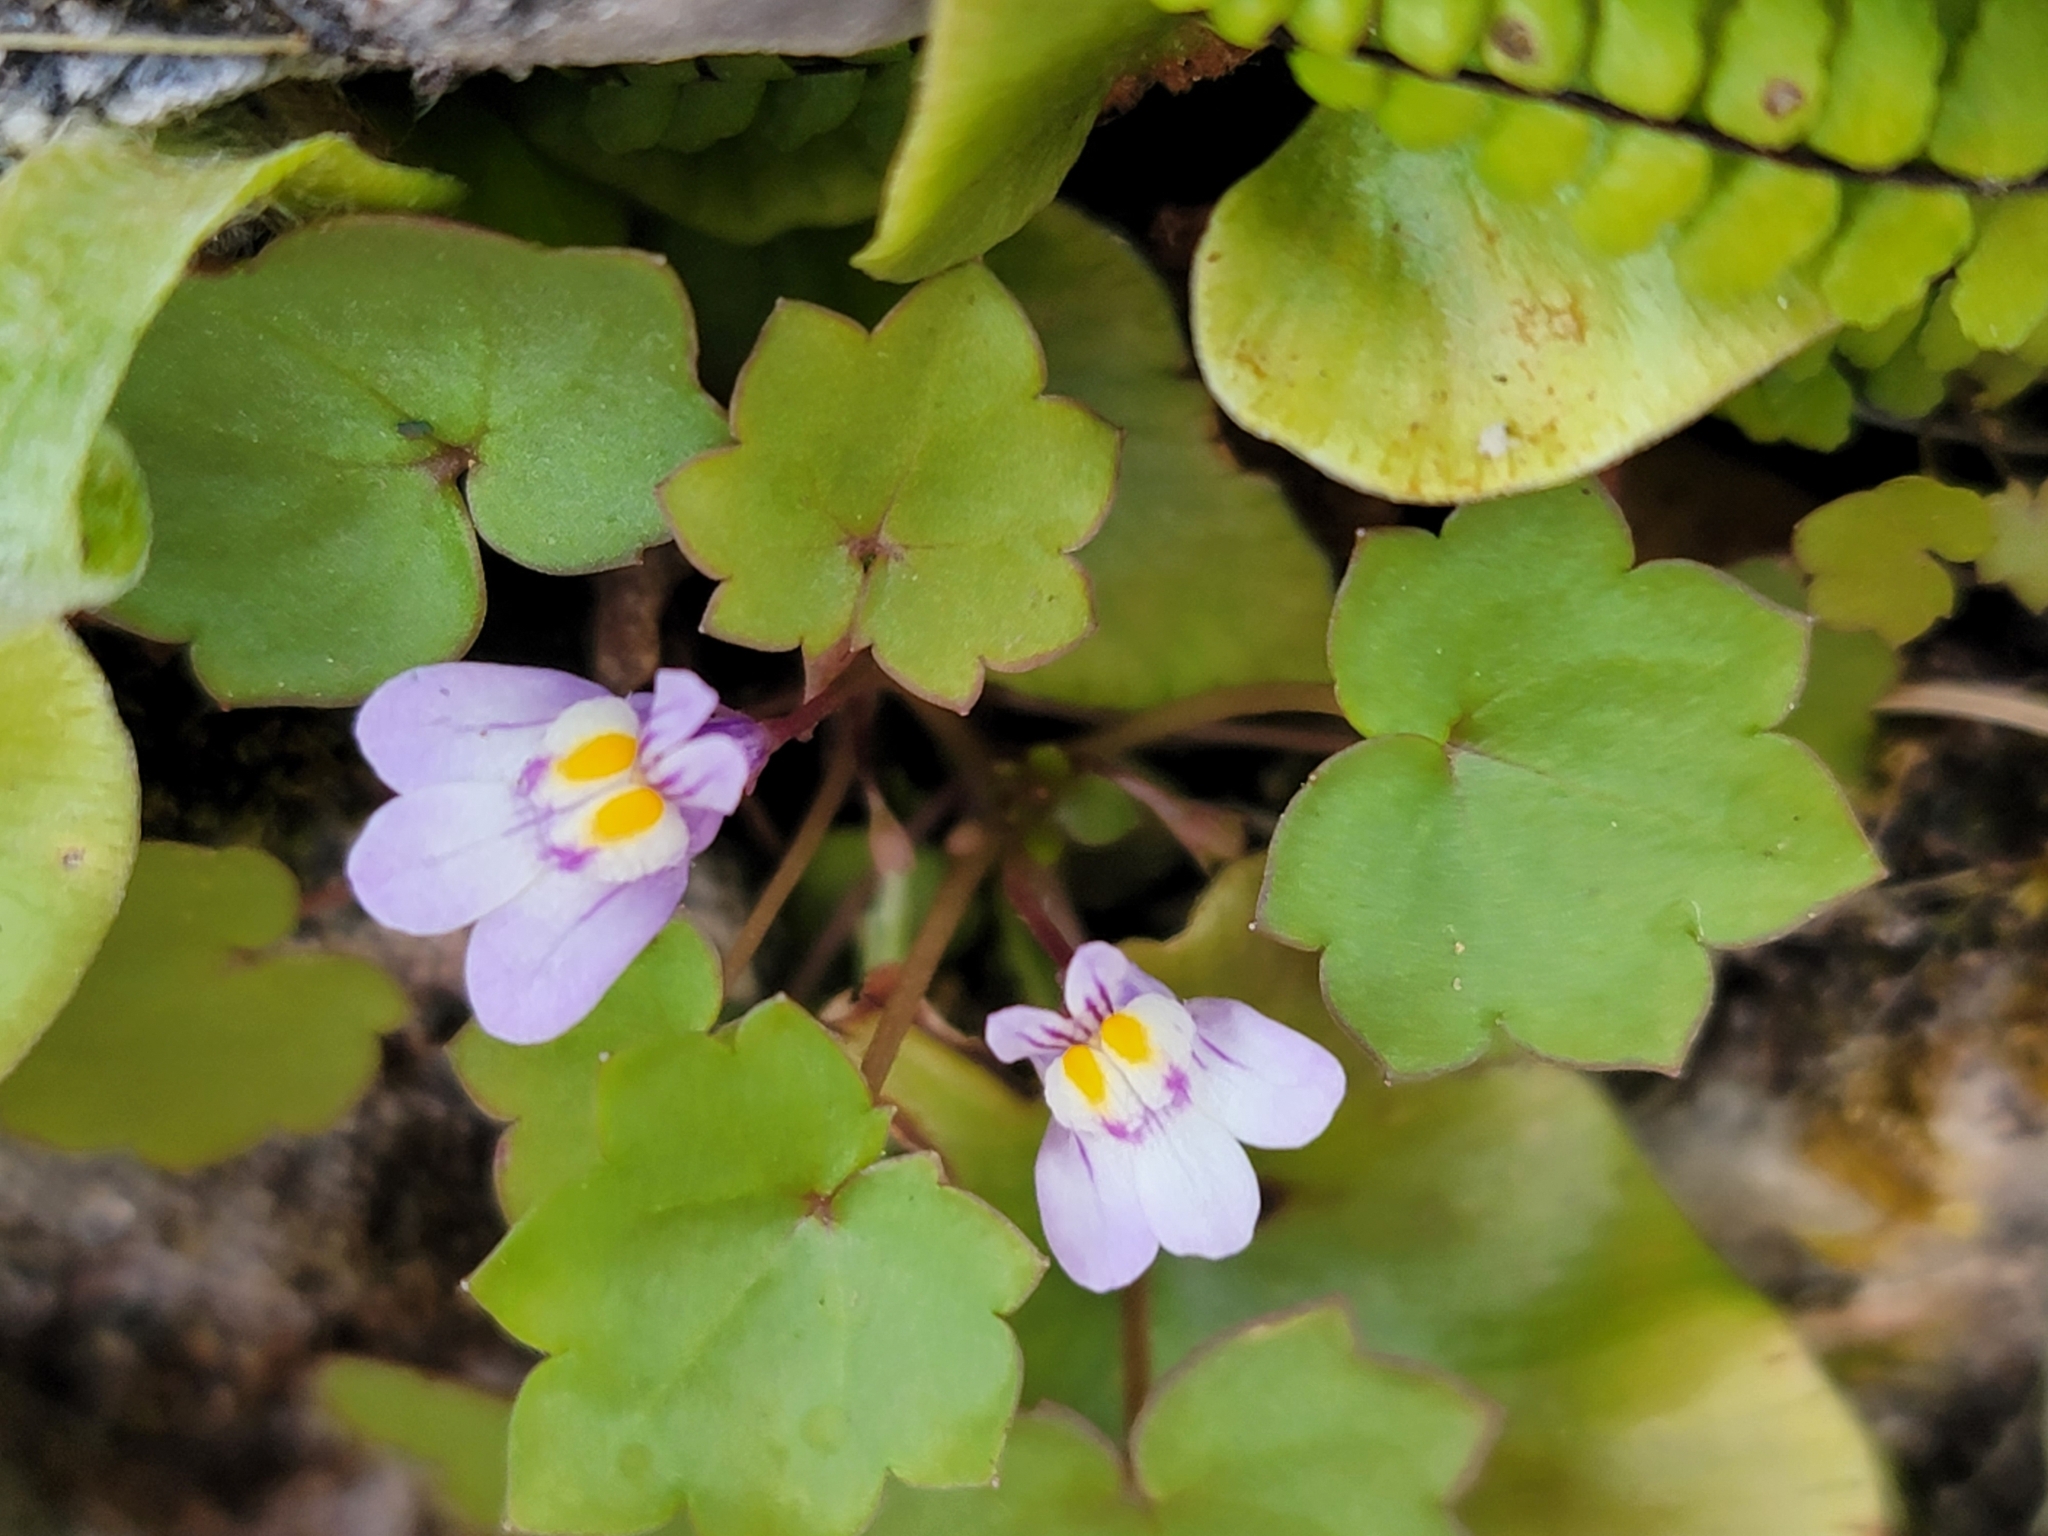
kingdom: Plantae
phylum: Tracheophyta
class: Magnoliopsida
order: Lamiales
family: Plantaginaceae
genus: Cymbalaria
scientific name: Cymbalaria muralis
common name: Ivy-leaved toadflax
